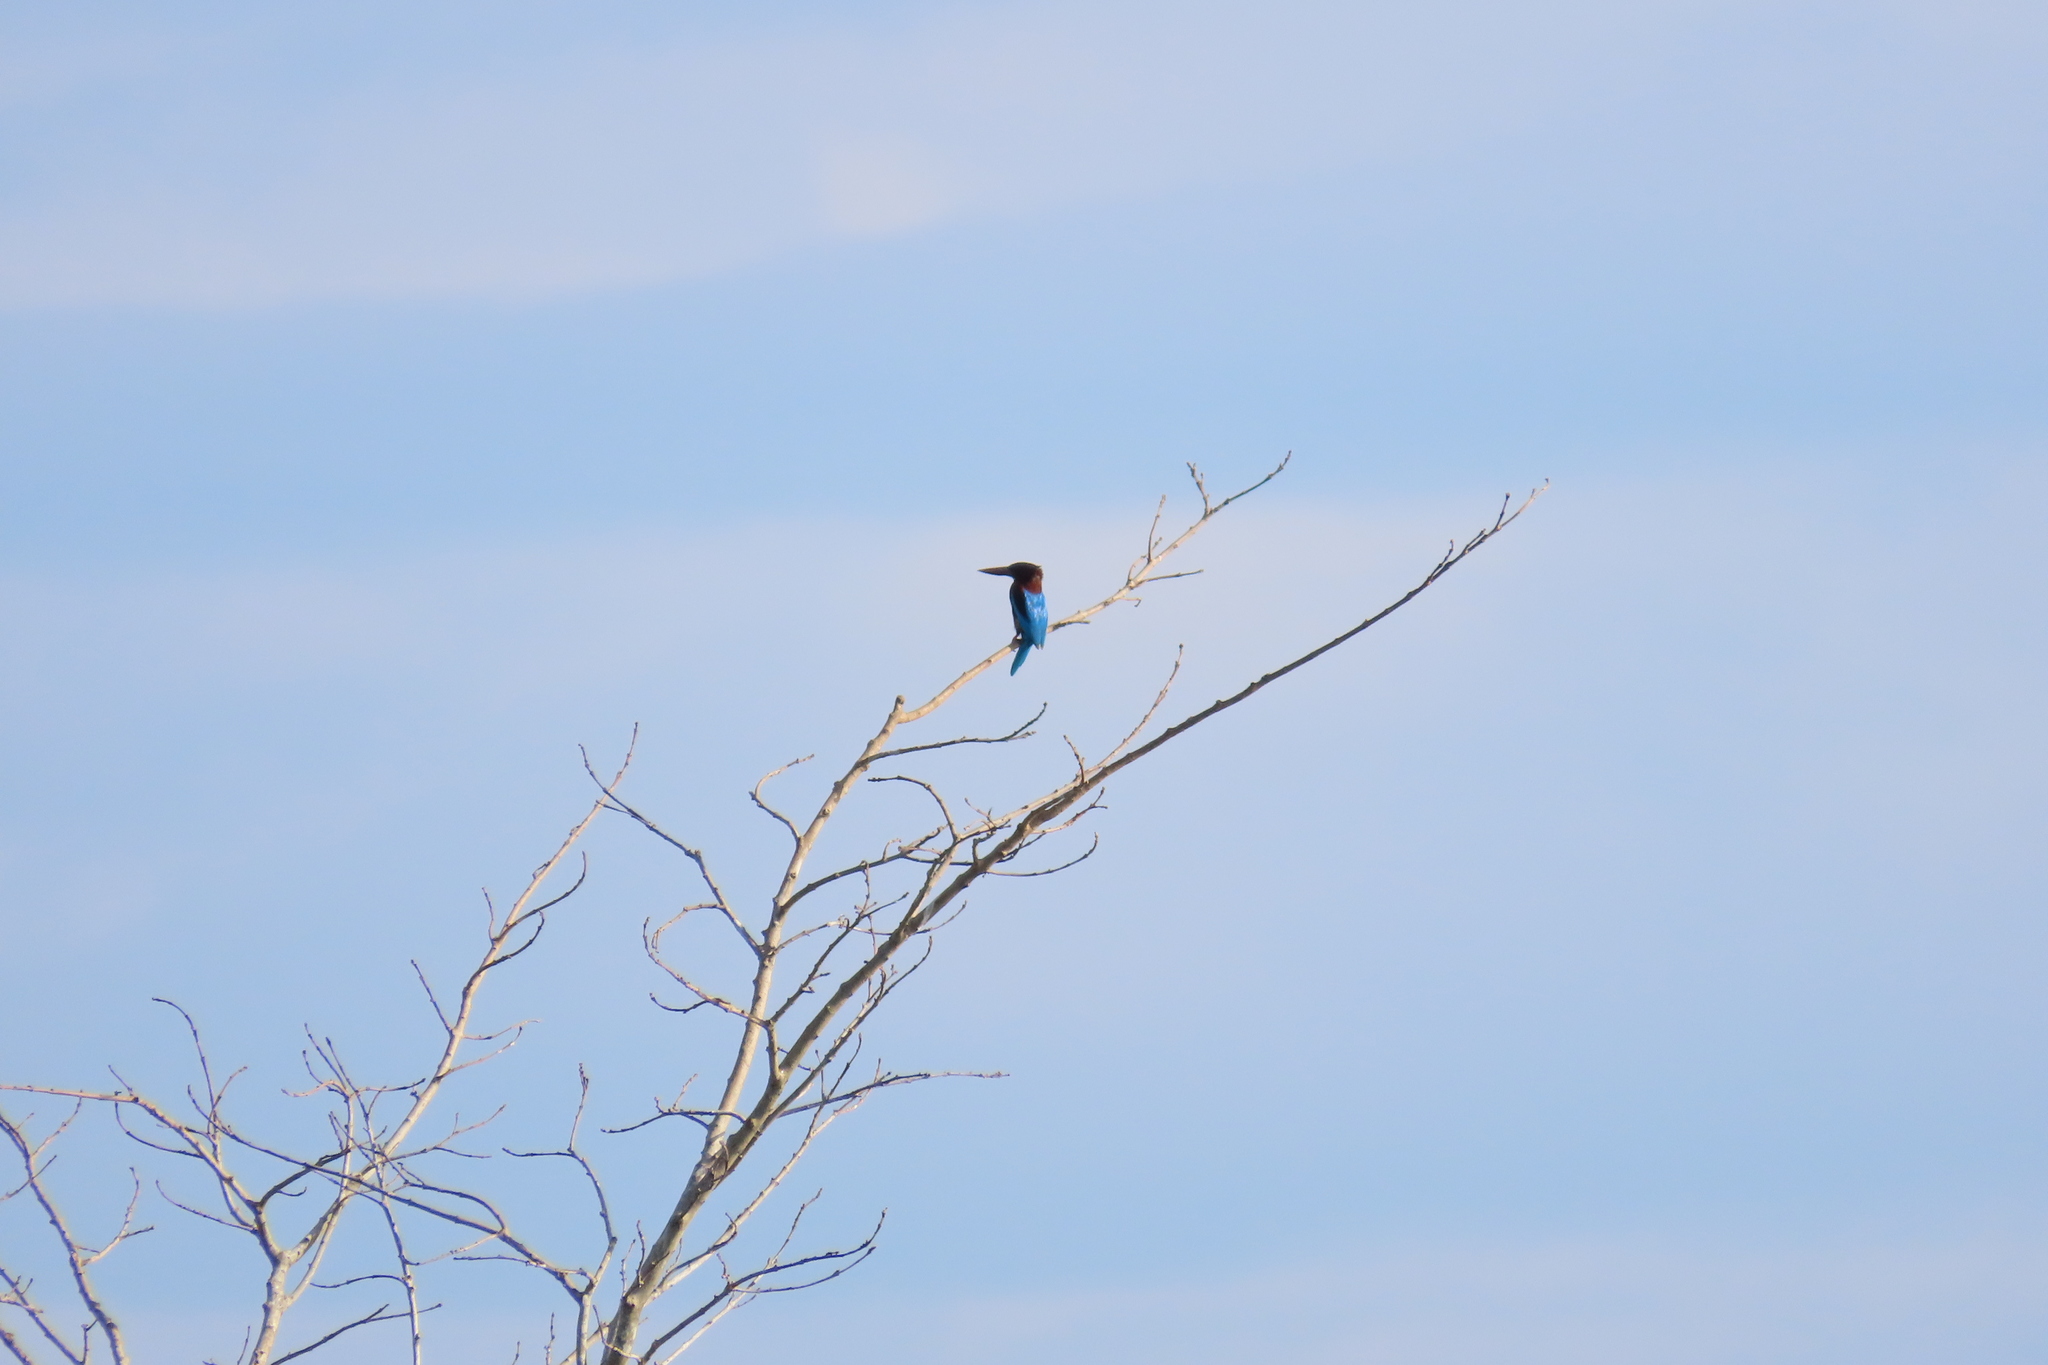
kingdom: Animalia
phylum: Chordata
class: Aves
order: Coraciiformes
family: Alcedinidae
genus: Halcyon
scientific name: Halcyon smyrnensis
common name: White-throated kingfisher
